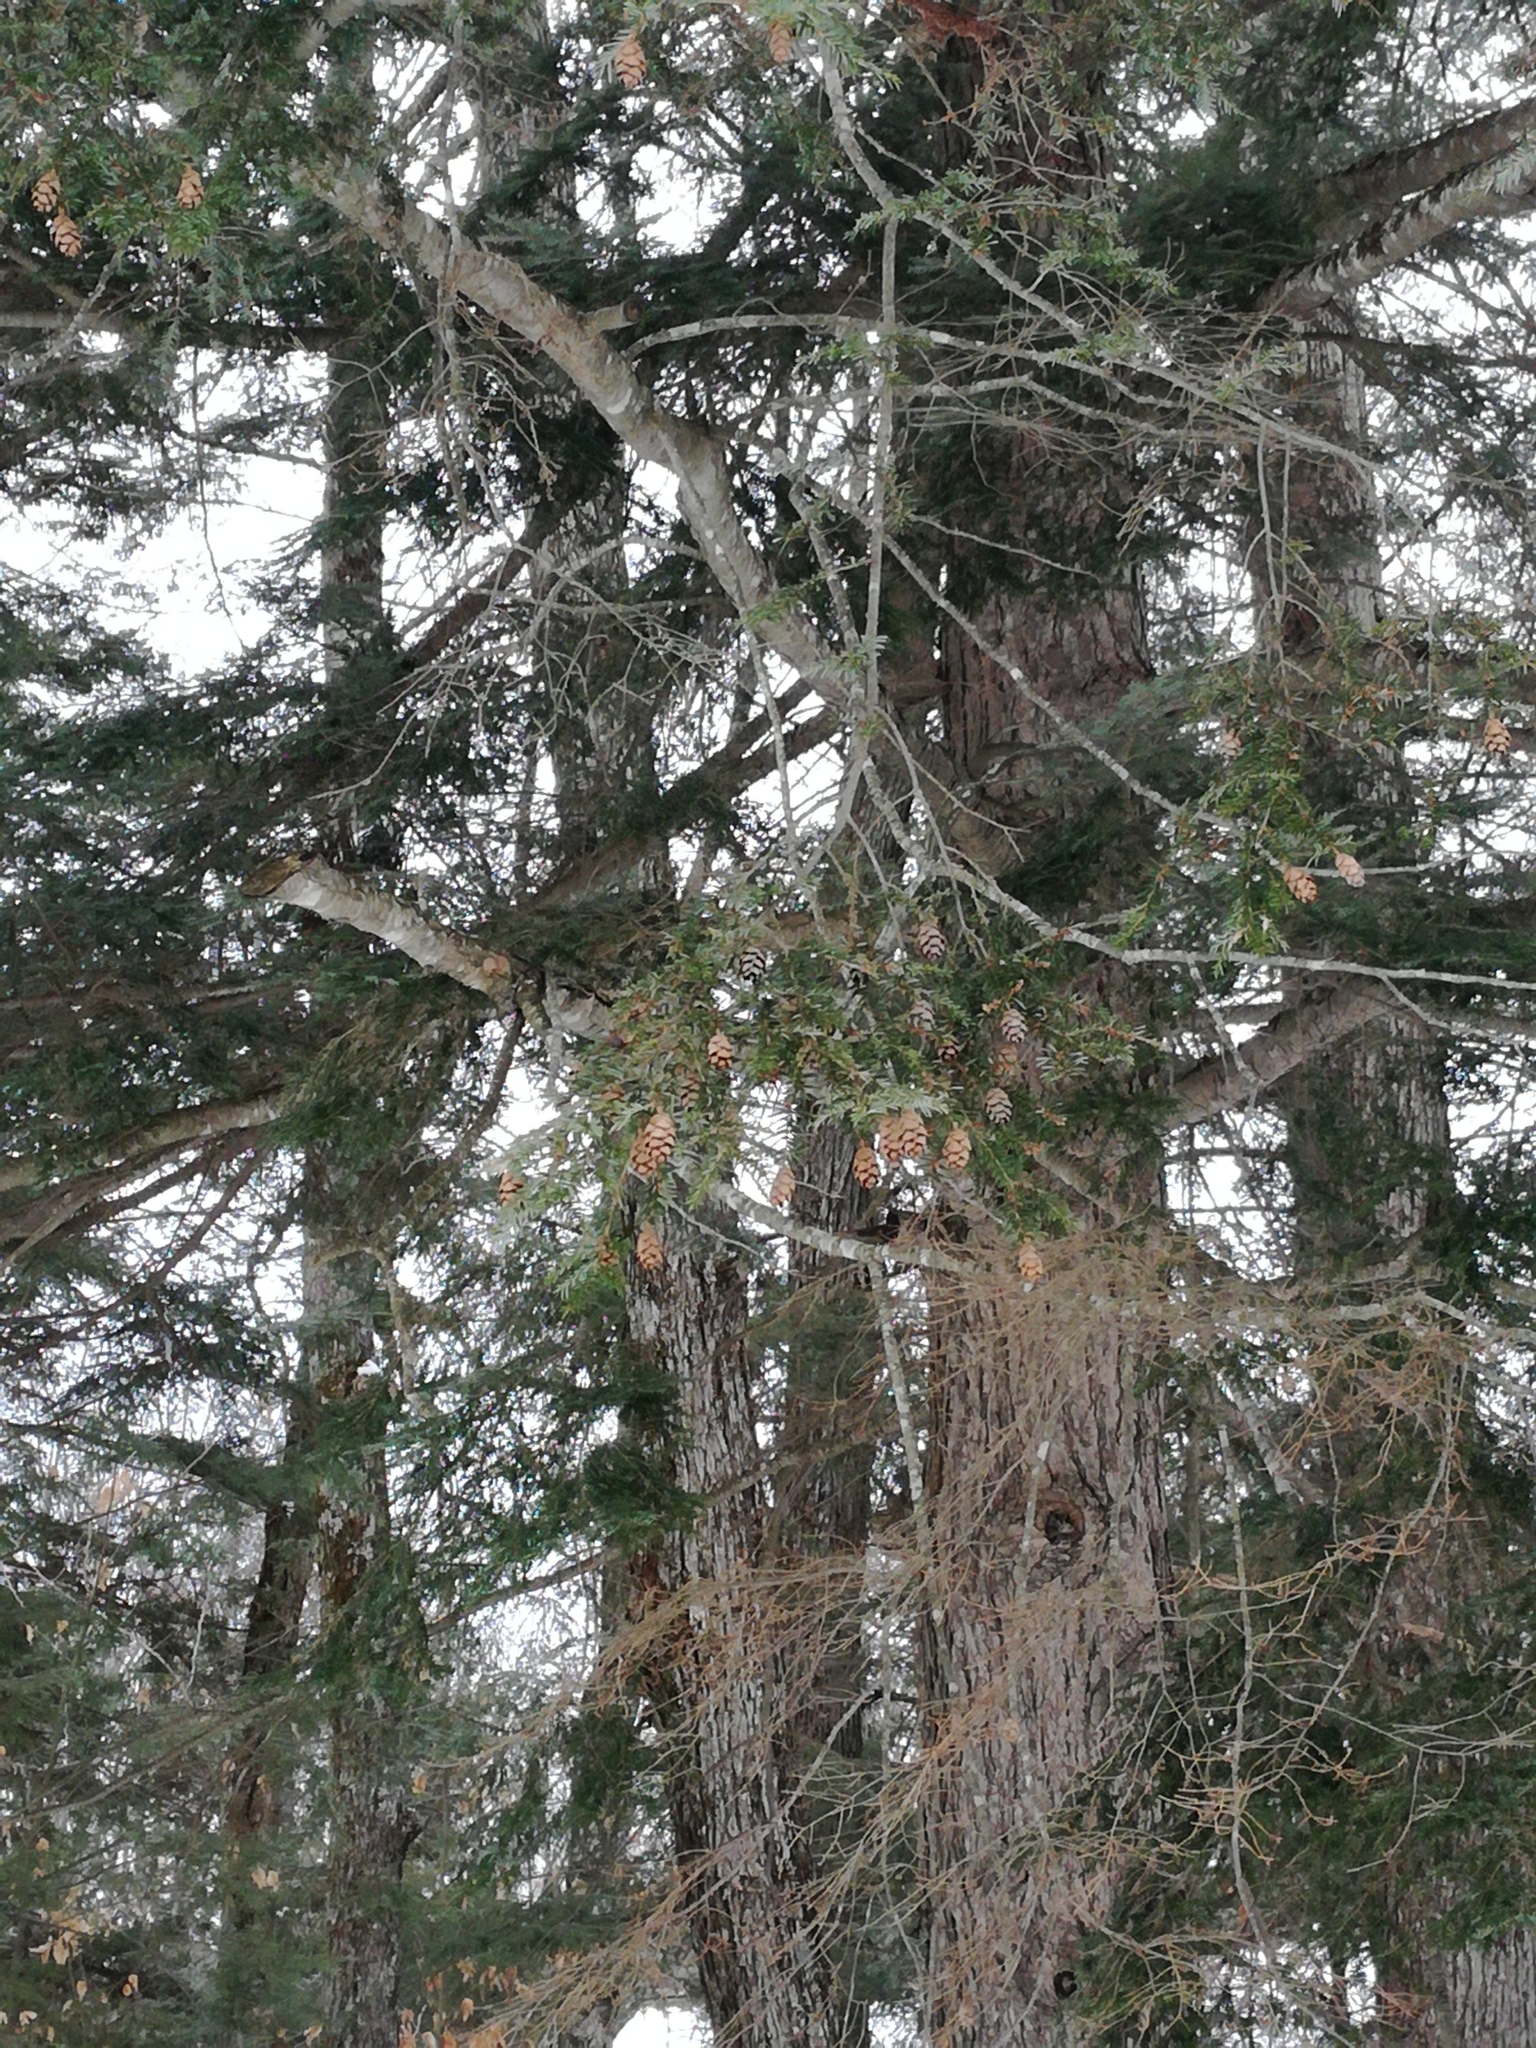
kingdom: Plantae
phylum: Tracheophyta
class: Pinopsida
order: Pinales
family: Pinaceae
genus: Tsuga
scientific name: Tsuga canadensis
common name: Eastern hemlock
